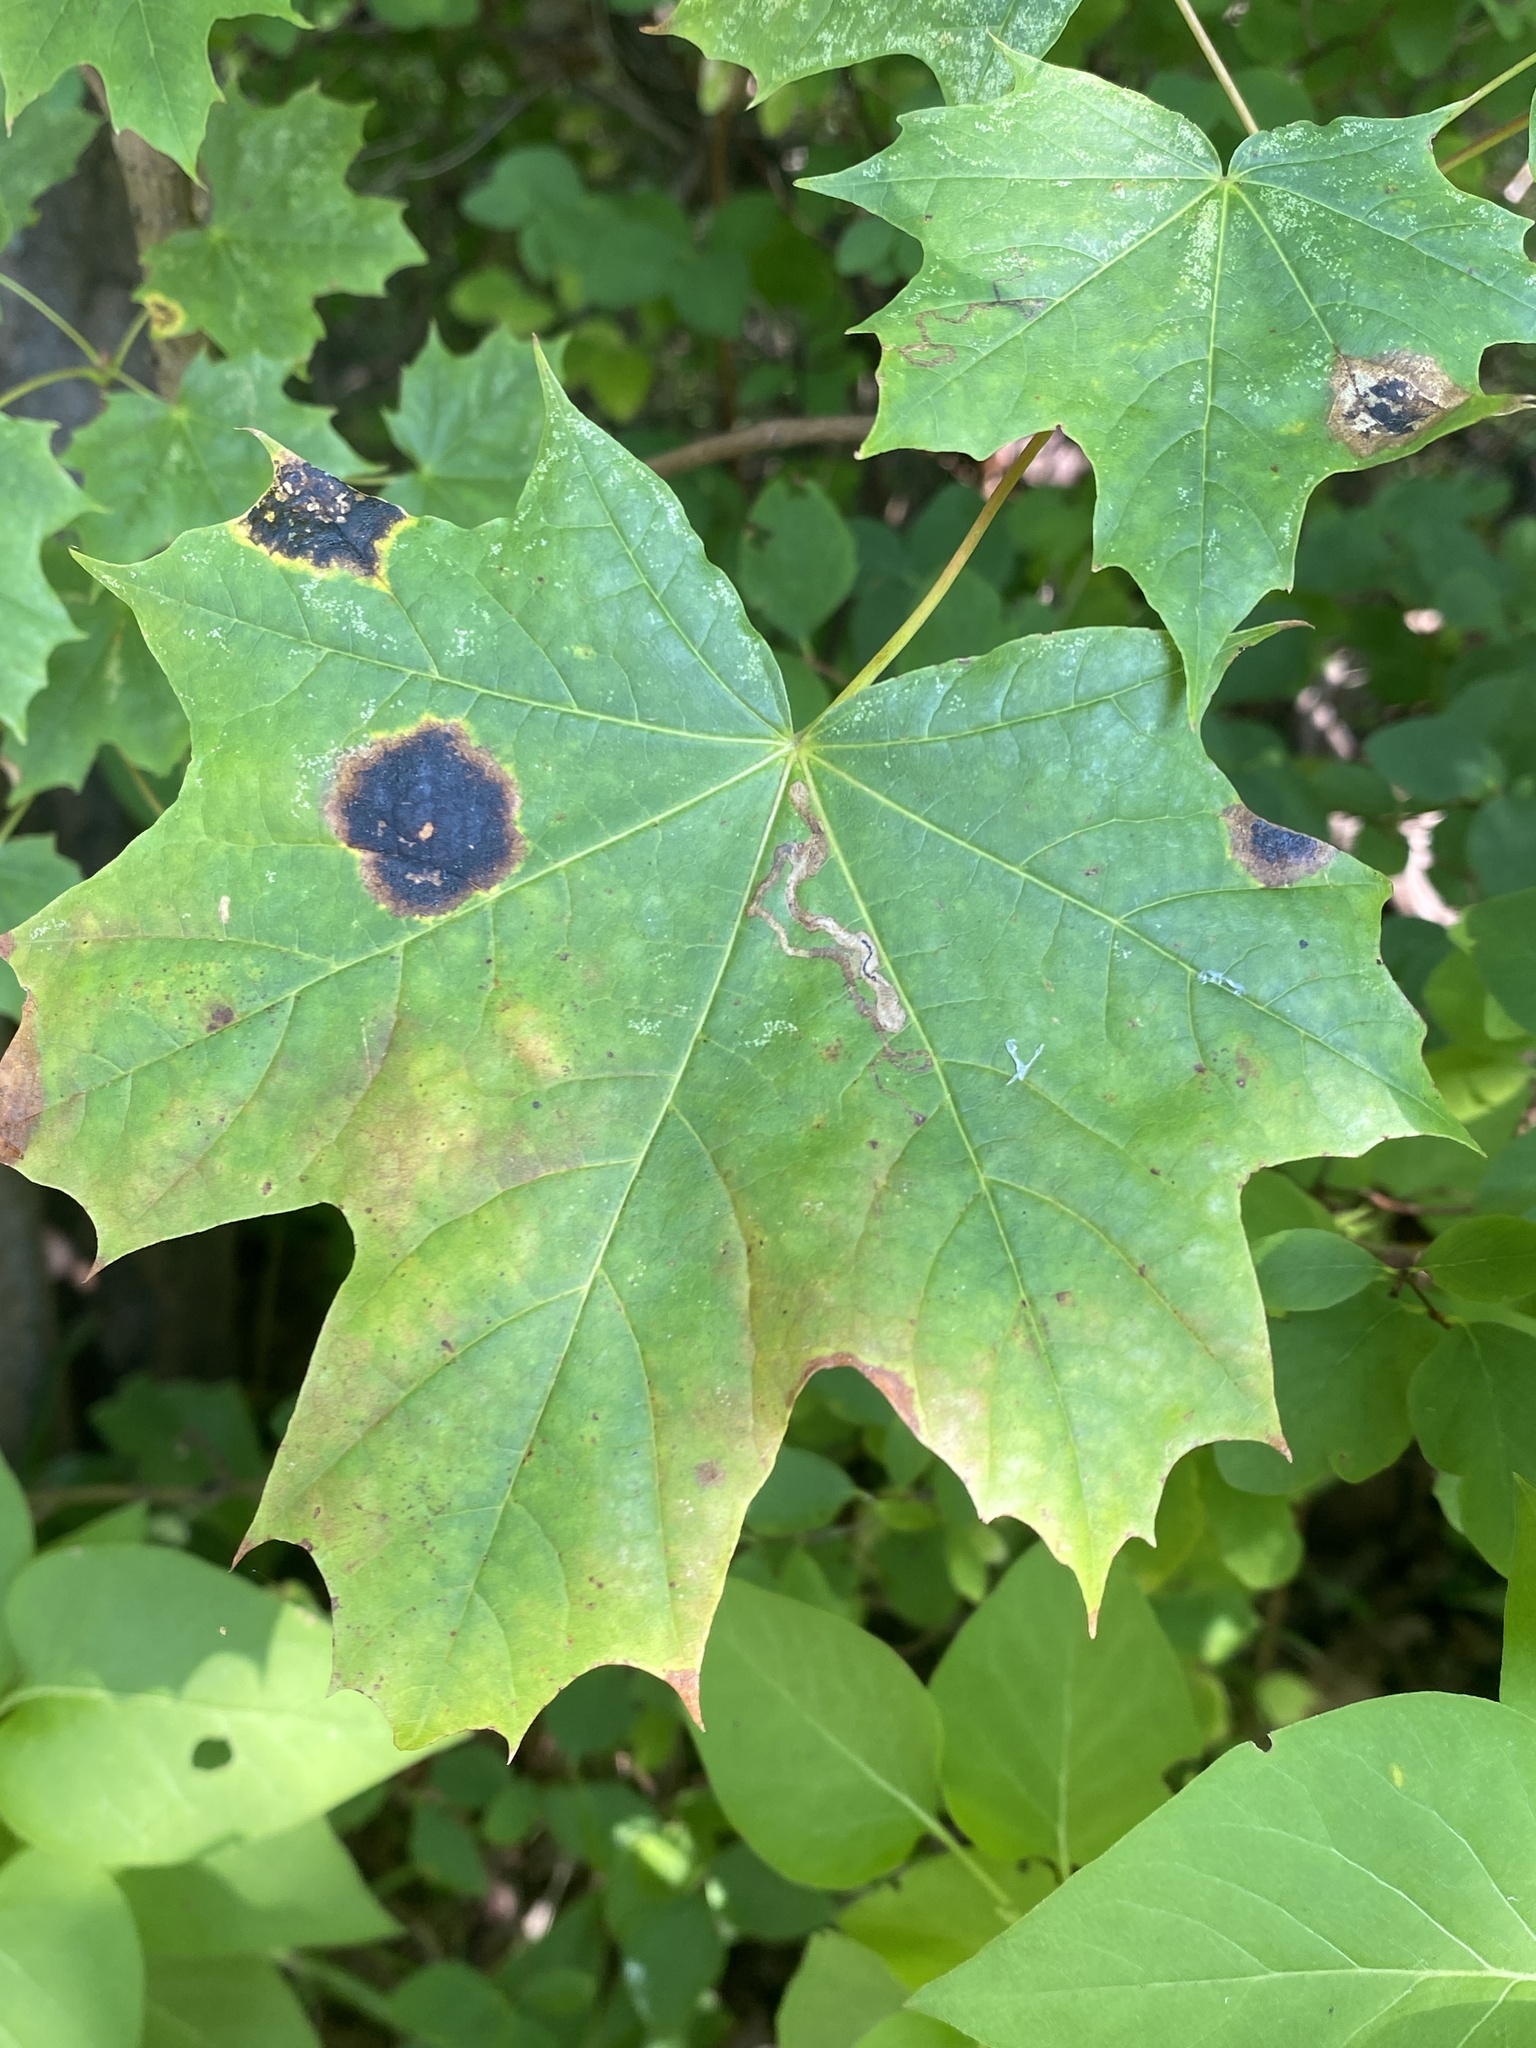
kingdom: Fungi
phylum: Ascomycota
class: Leotiomycetes
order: Rhytismatales
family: Rhytismataceae
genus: Rhytisma
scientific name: Rhytisma acerinum
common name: European tar spot
